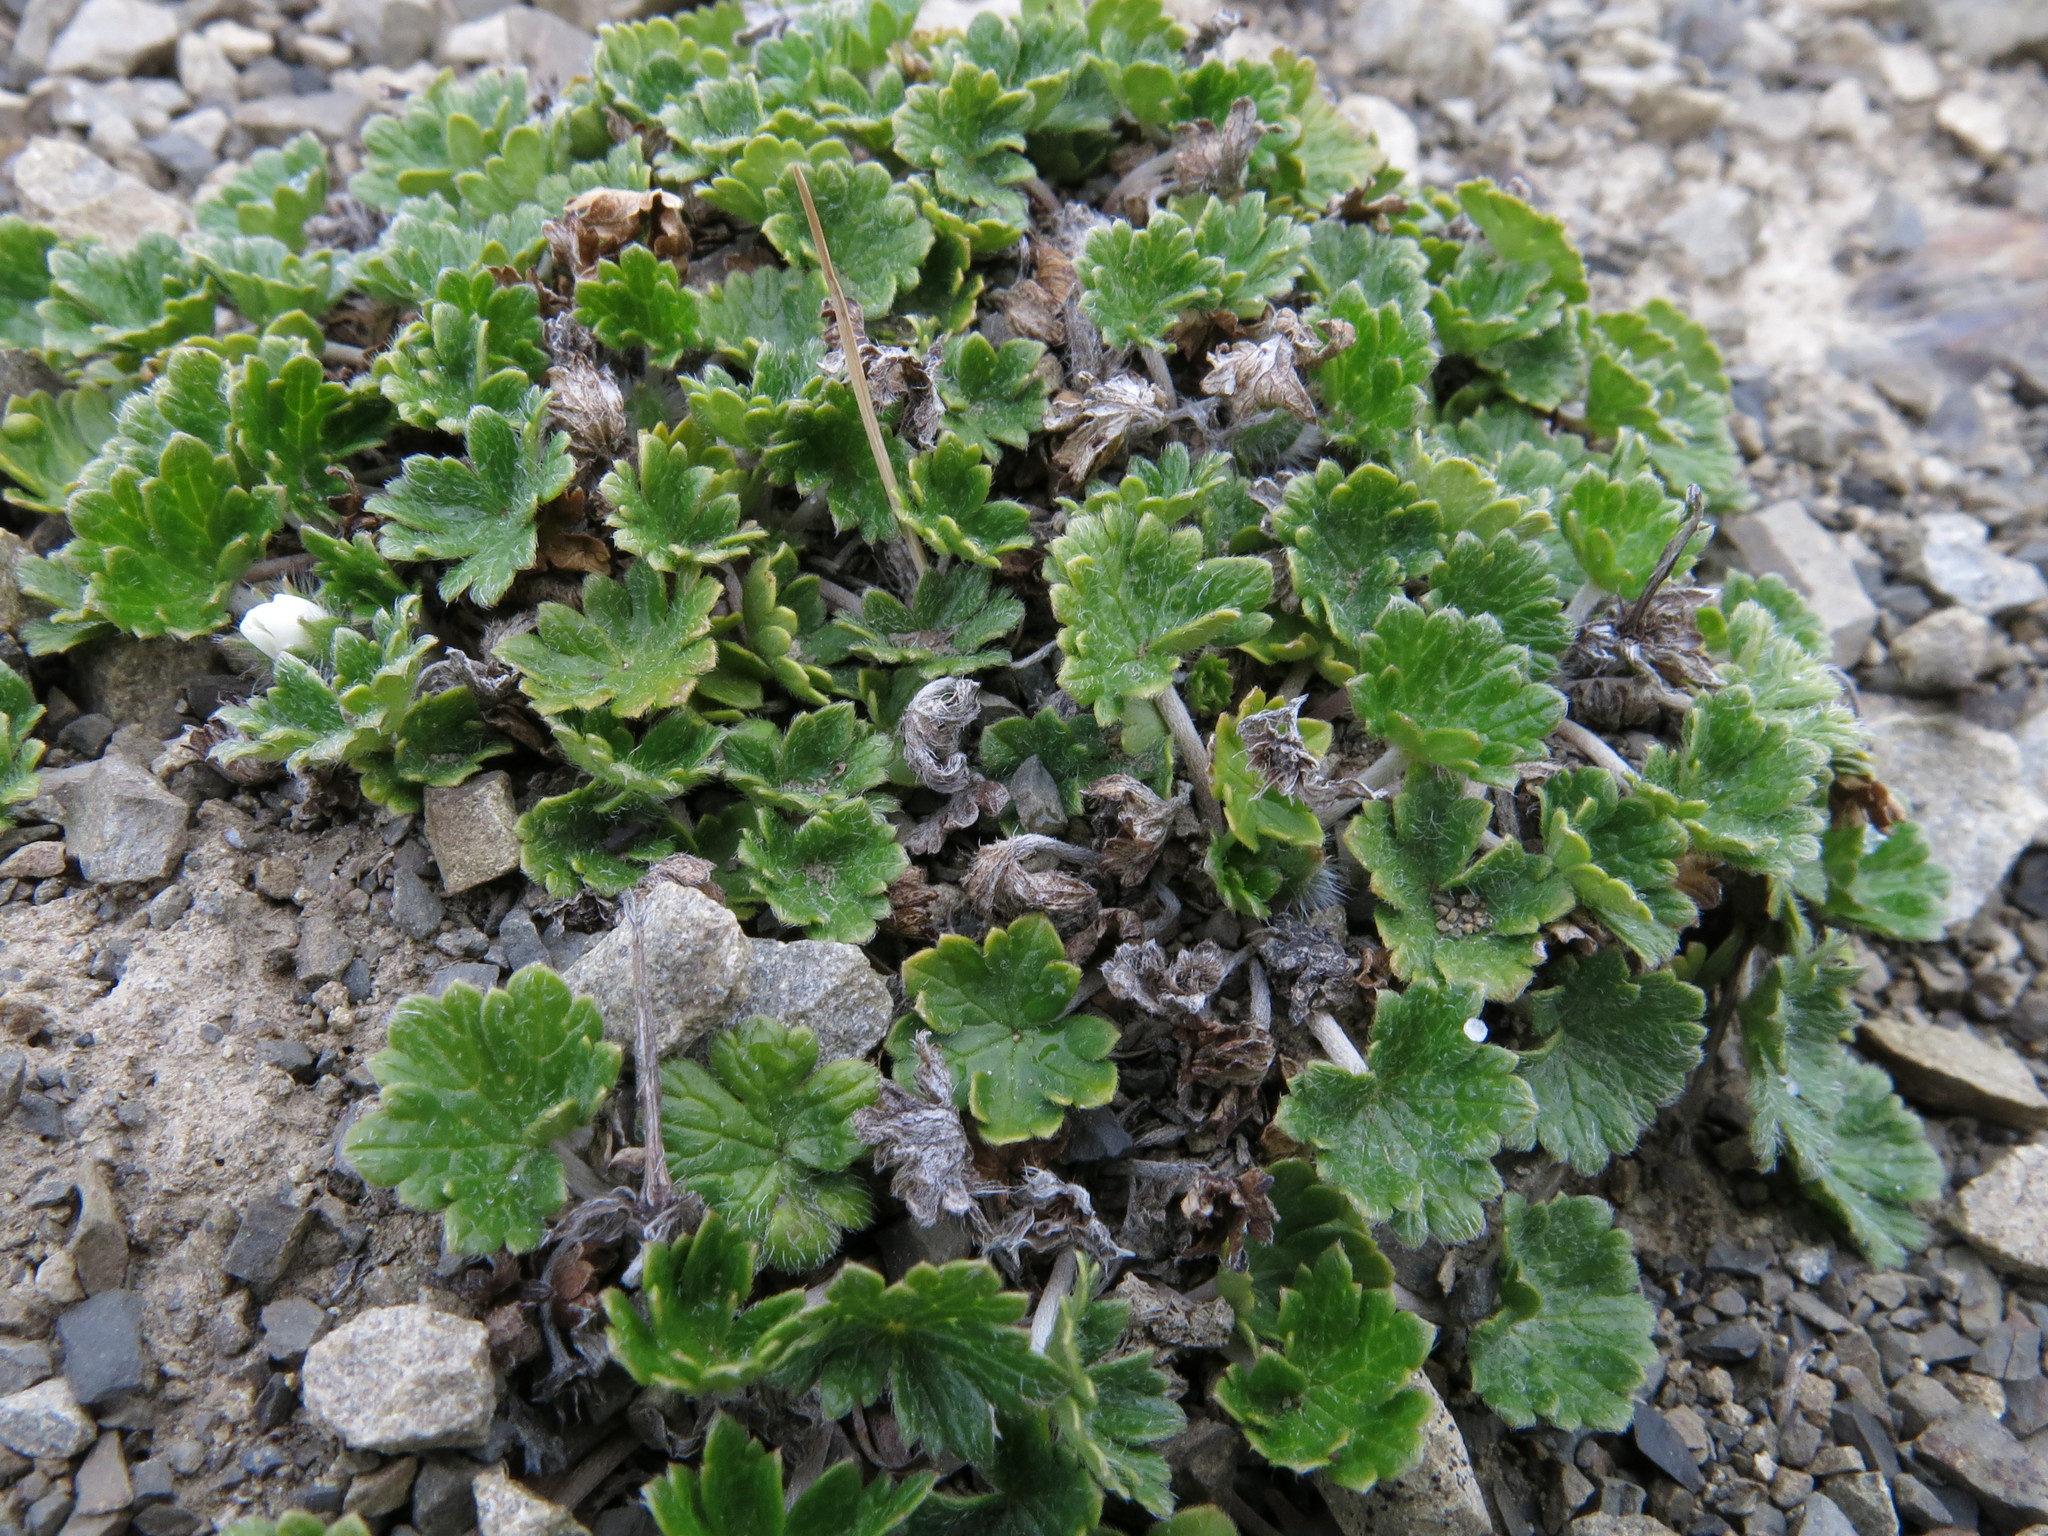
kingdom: Plantae
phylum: Tracheophyta
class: Magnoliopsida
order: Geraniales
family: Geraniaceae
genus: Geranium
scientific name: Geranium brevicaule
